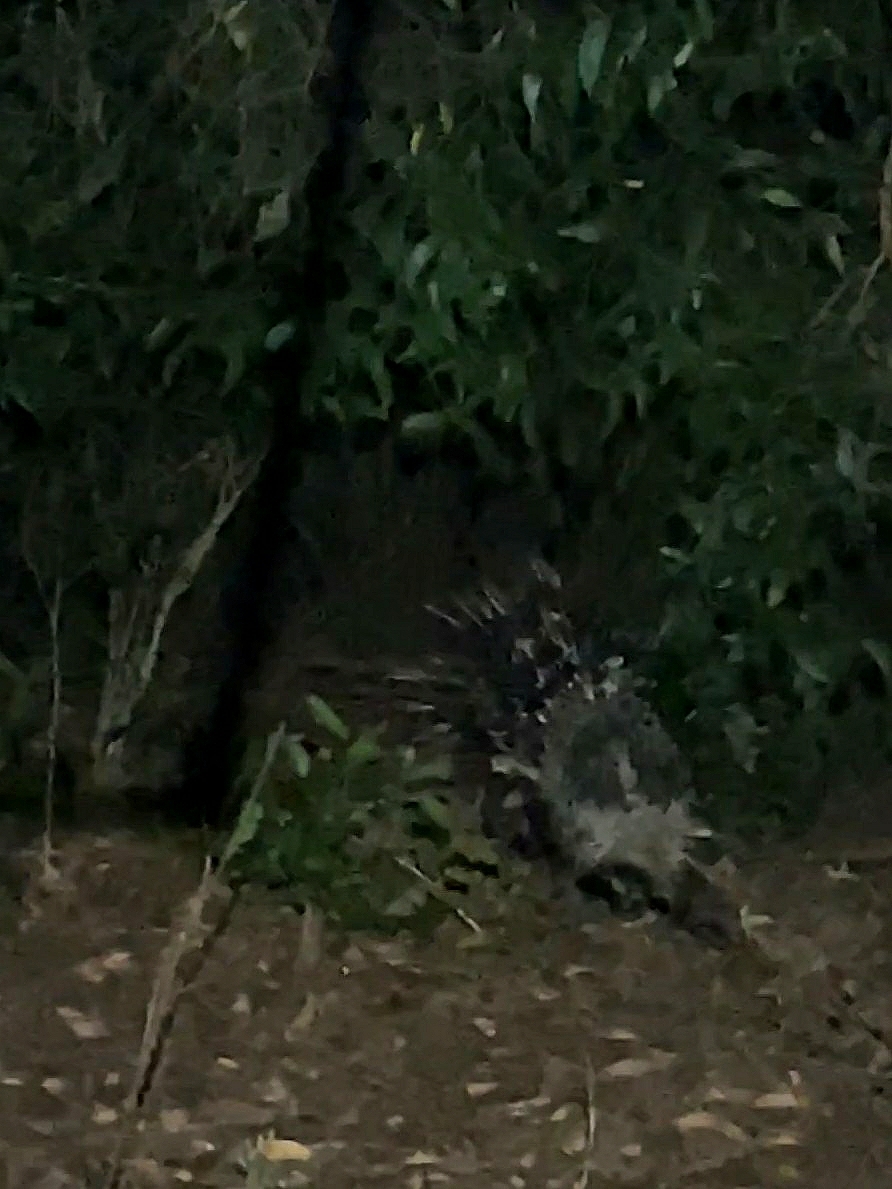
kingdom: Animalia
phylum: Chordata
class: Mammalia
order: Rodentia
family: Hystricidae
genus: Hystrix
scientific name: Hystrix indica
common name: Indian crested porcupine
